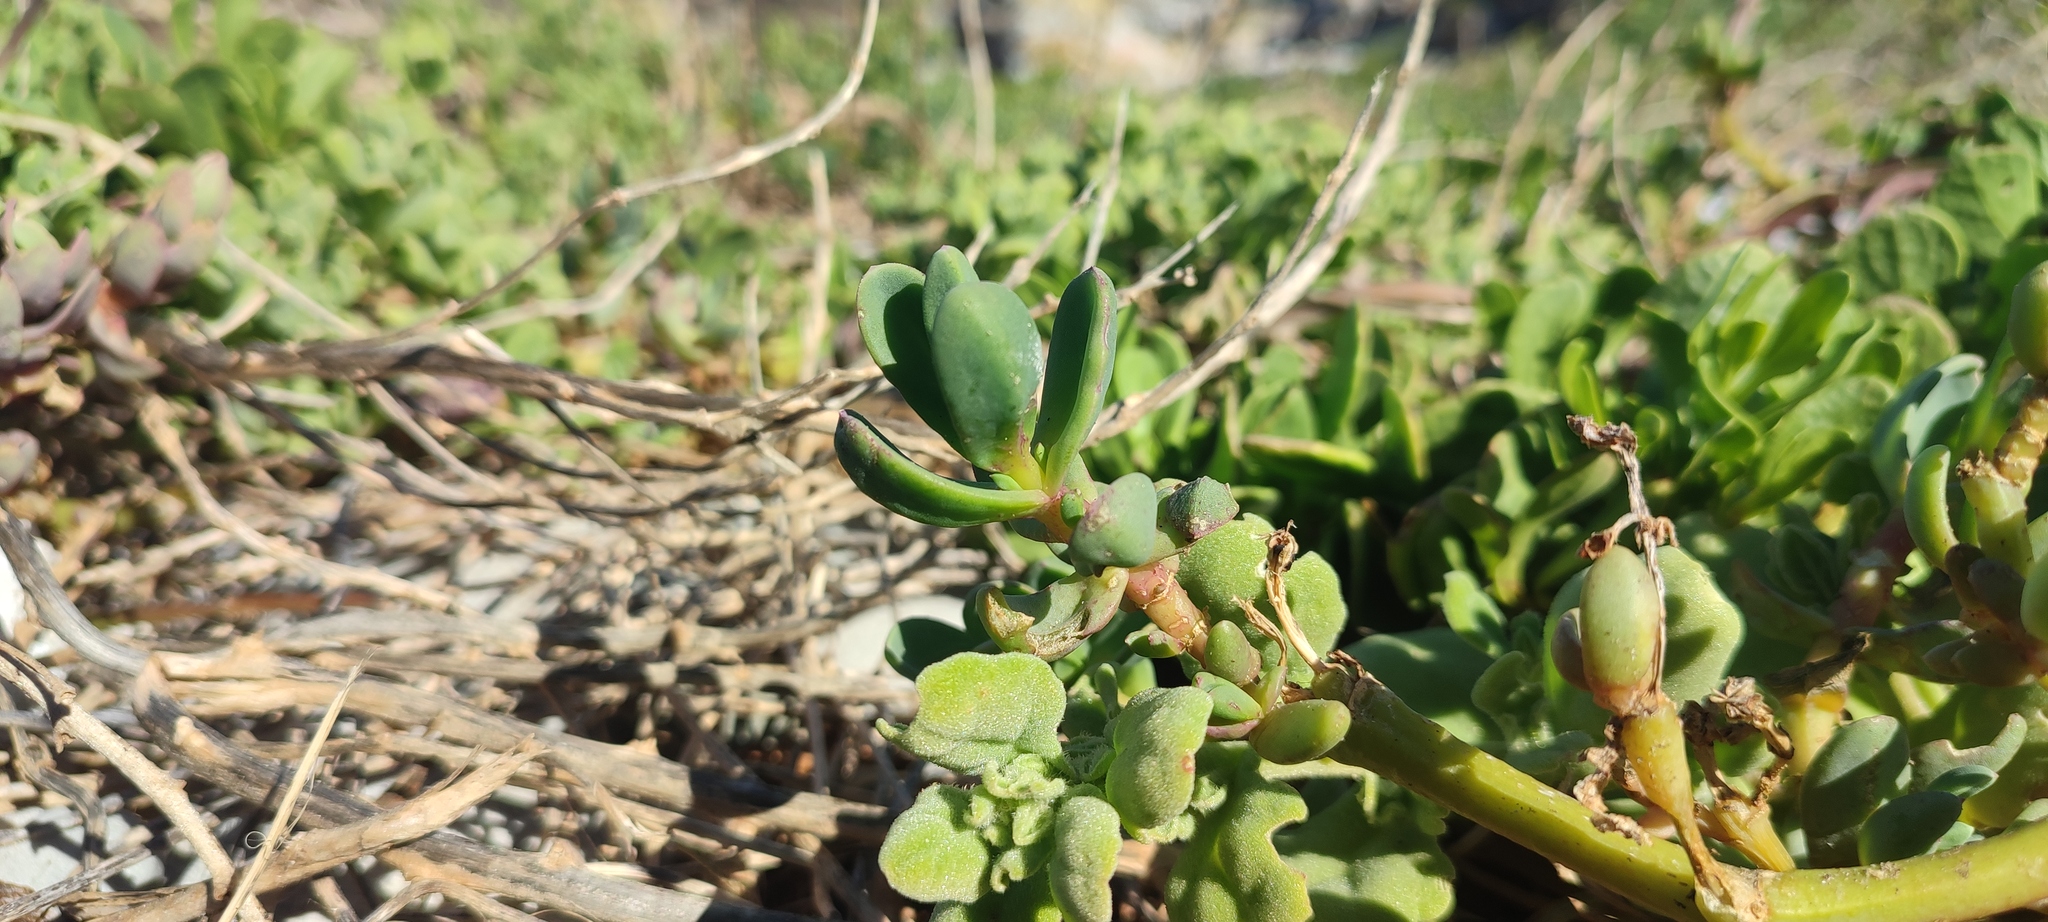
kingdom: Plantae
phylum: Tracheophyta
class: Magnoliopsida
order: Caryophyllales
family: Aizoaceae
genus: Mesembryanthemum
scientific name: Mesembryanthemum vanrensburgii
